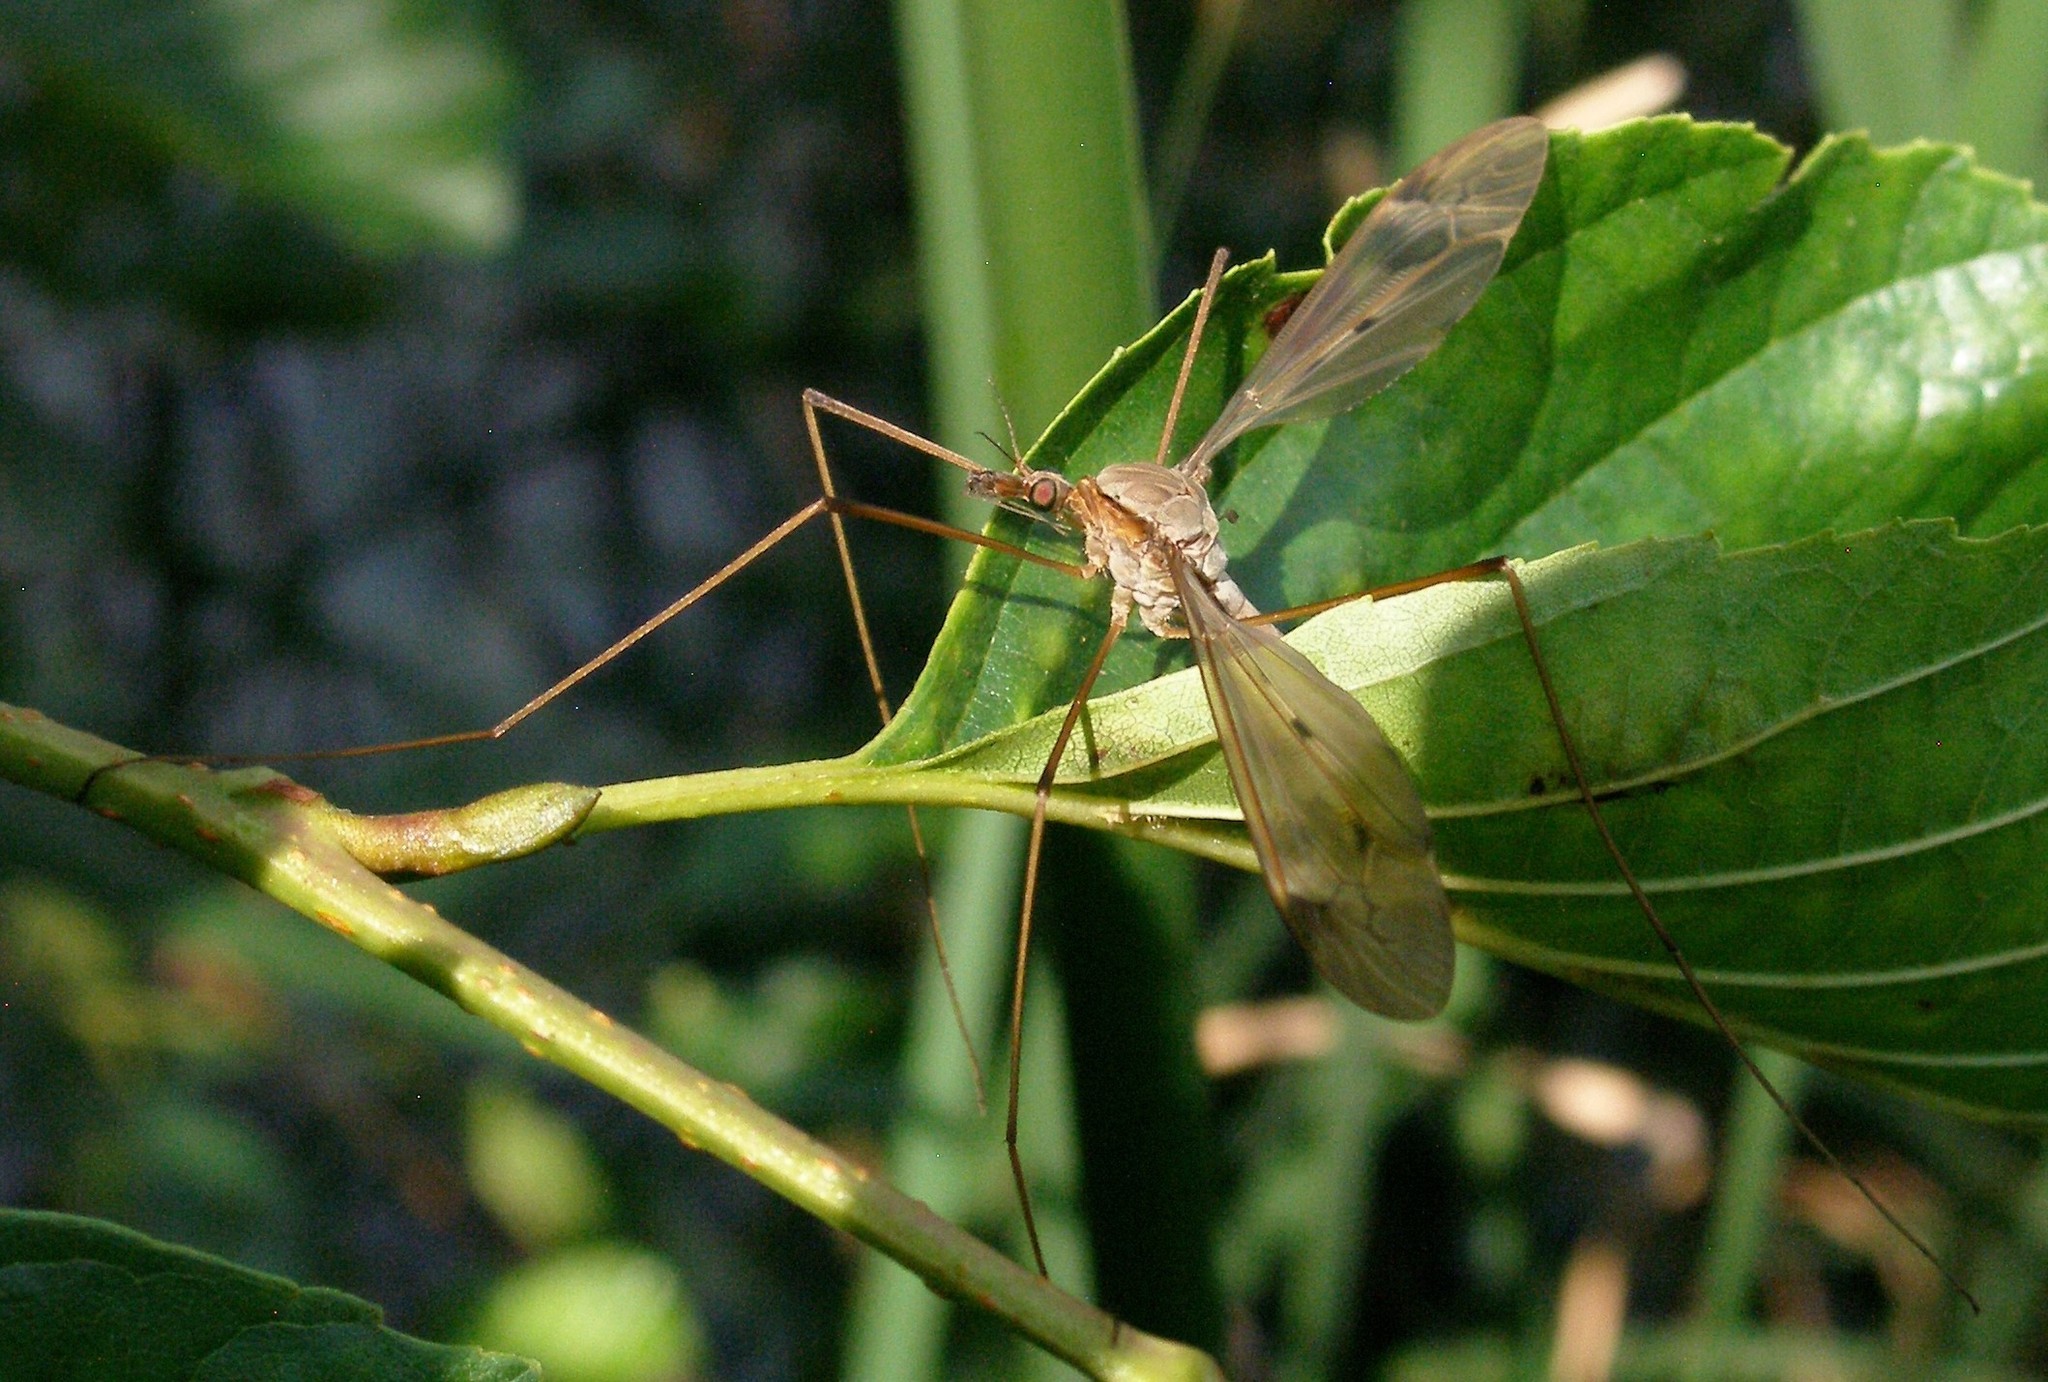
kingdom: Animalia
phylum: Arthropoda
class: Insecta
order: Diptera
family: Tipulidae
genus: Tipula
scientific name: Tipula fulvipennis
